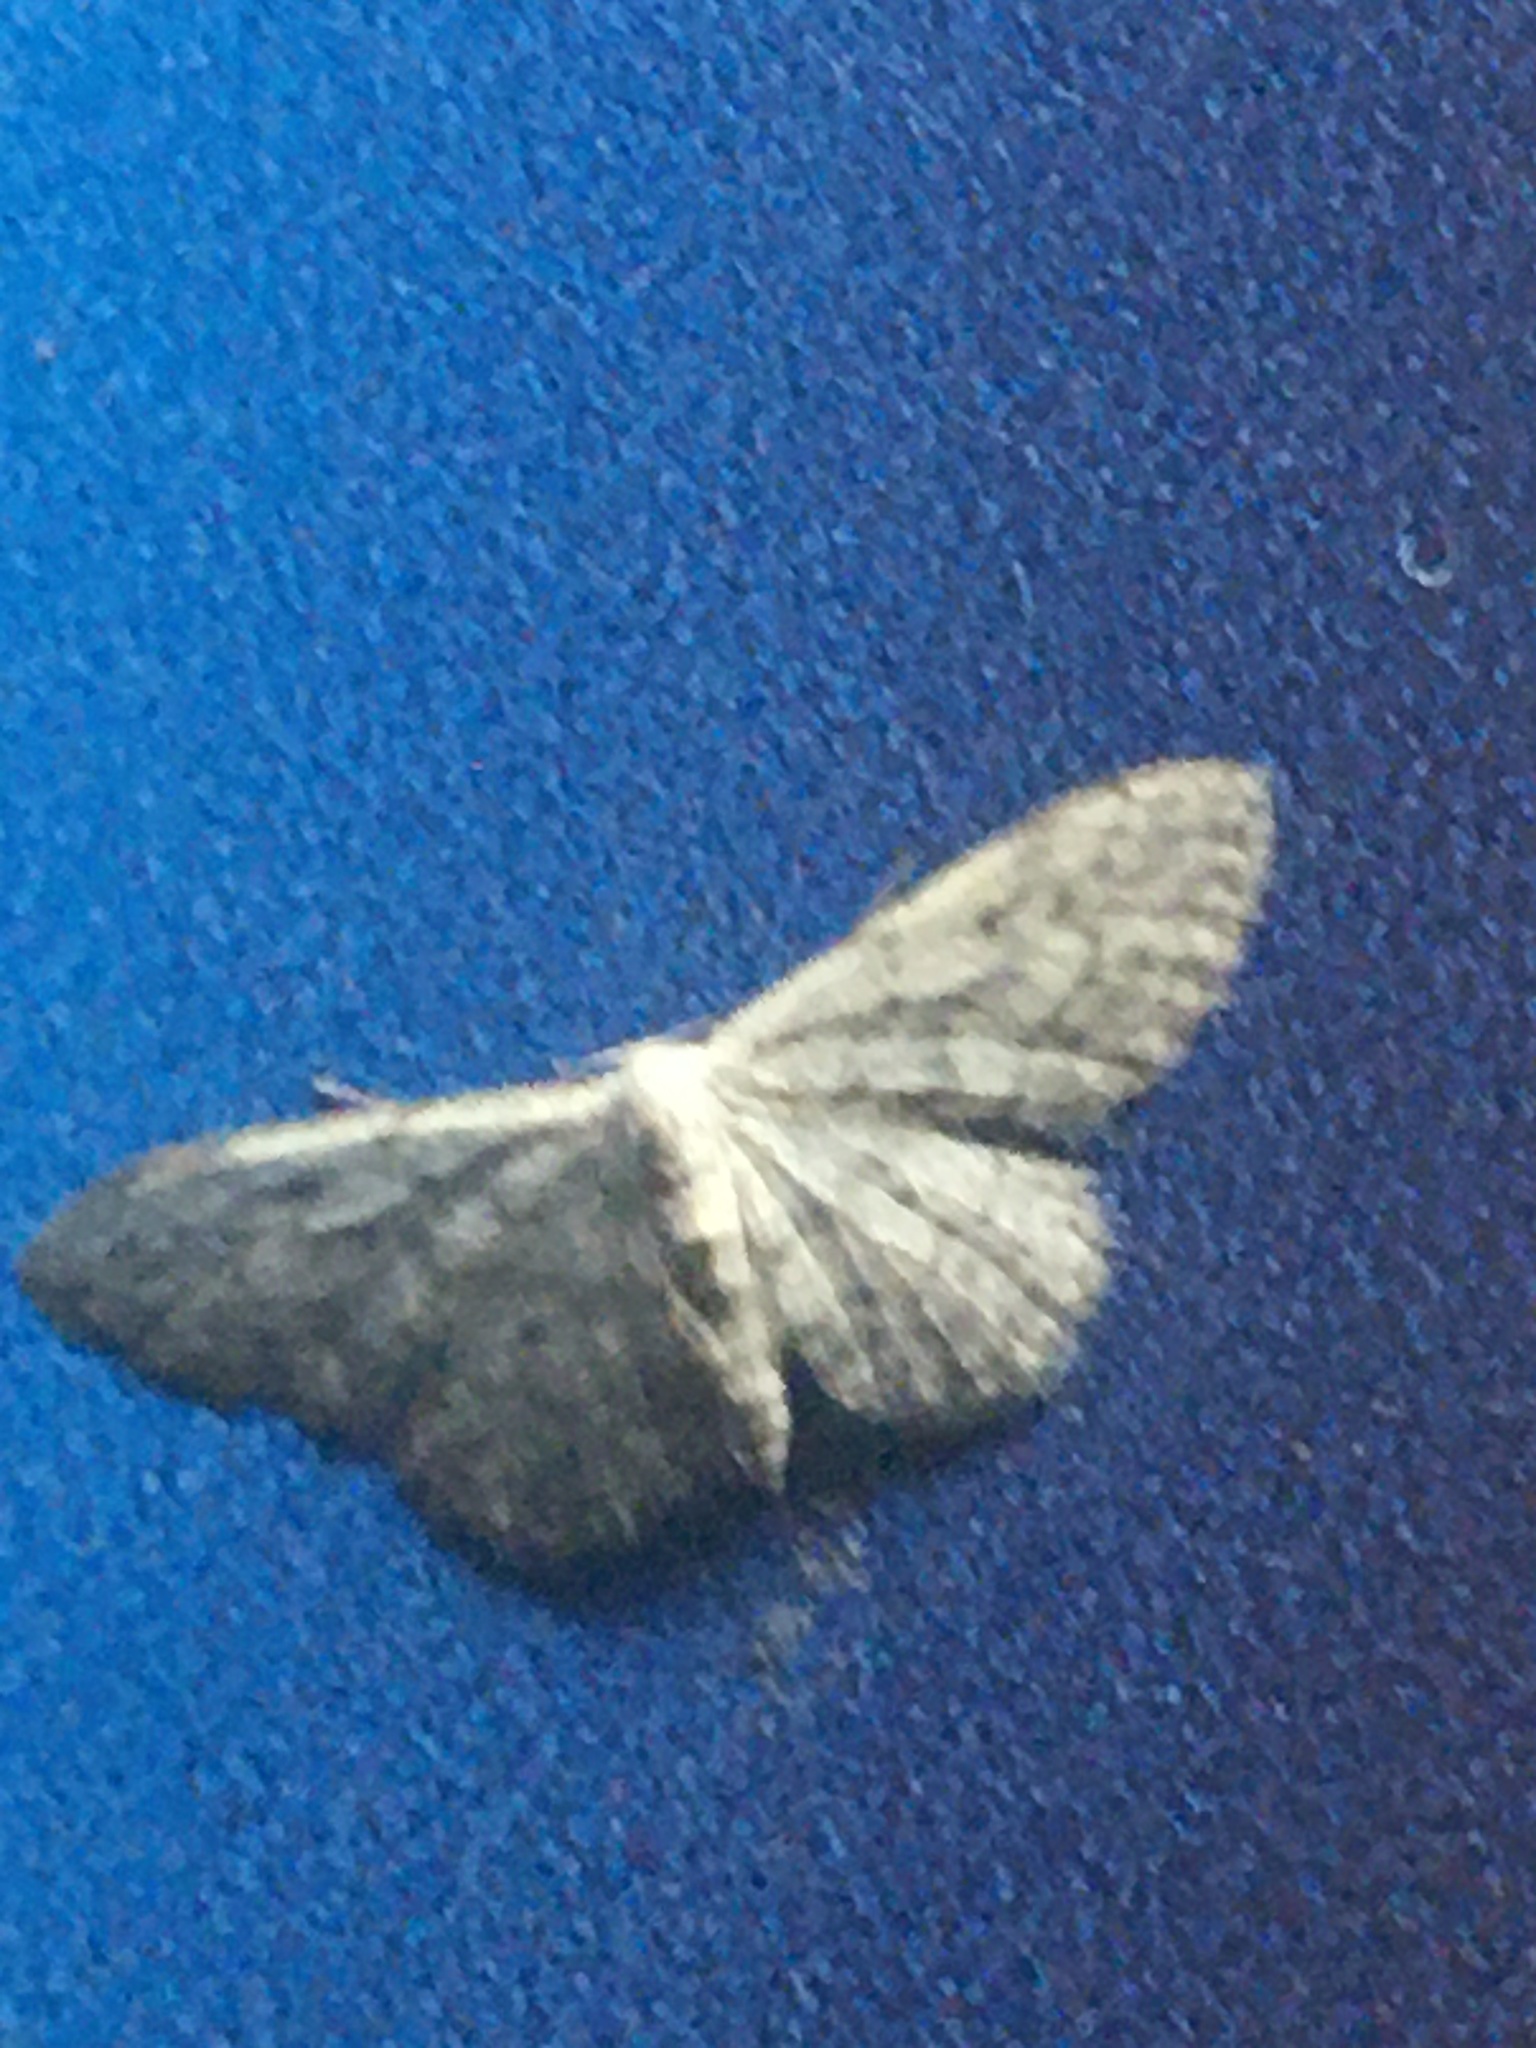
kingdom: Animalia
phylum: Arthropoda
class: Insecta
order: Lepidoptera
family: Geometridae
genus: Idaea
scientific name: Idaea seriata
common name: Small dusty wave
